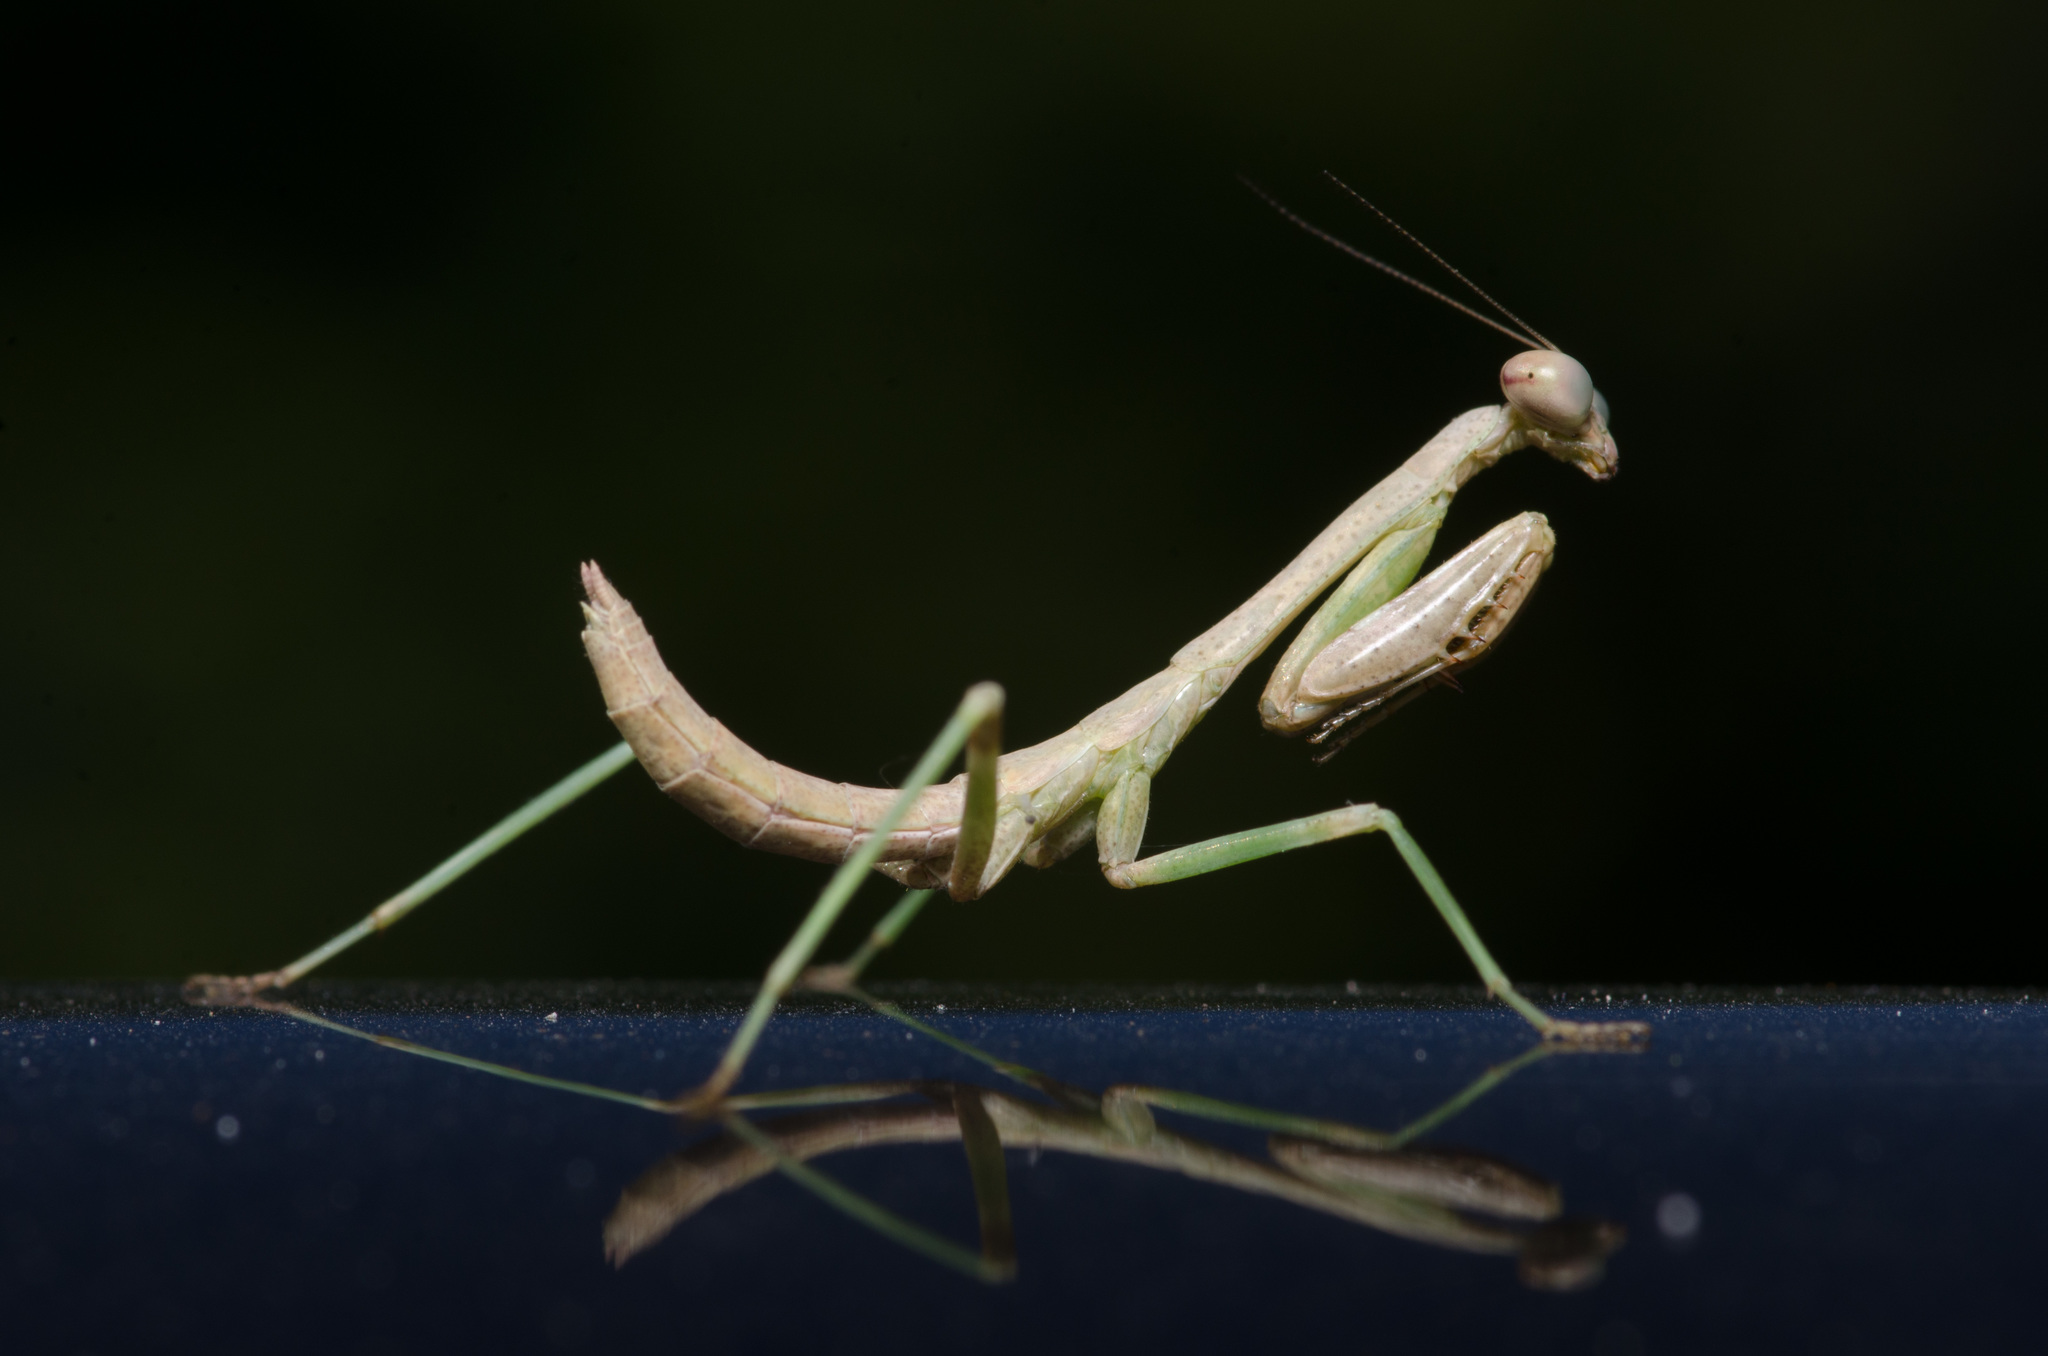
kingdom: Animalia
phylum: Arthropoda
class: Insecta
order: Mantodea
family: Mantidae
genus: Stagmomantis
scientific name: Stagmomantis carolina
